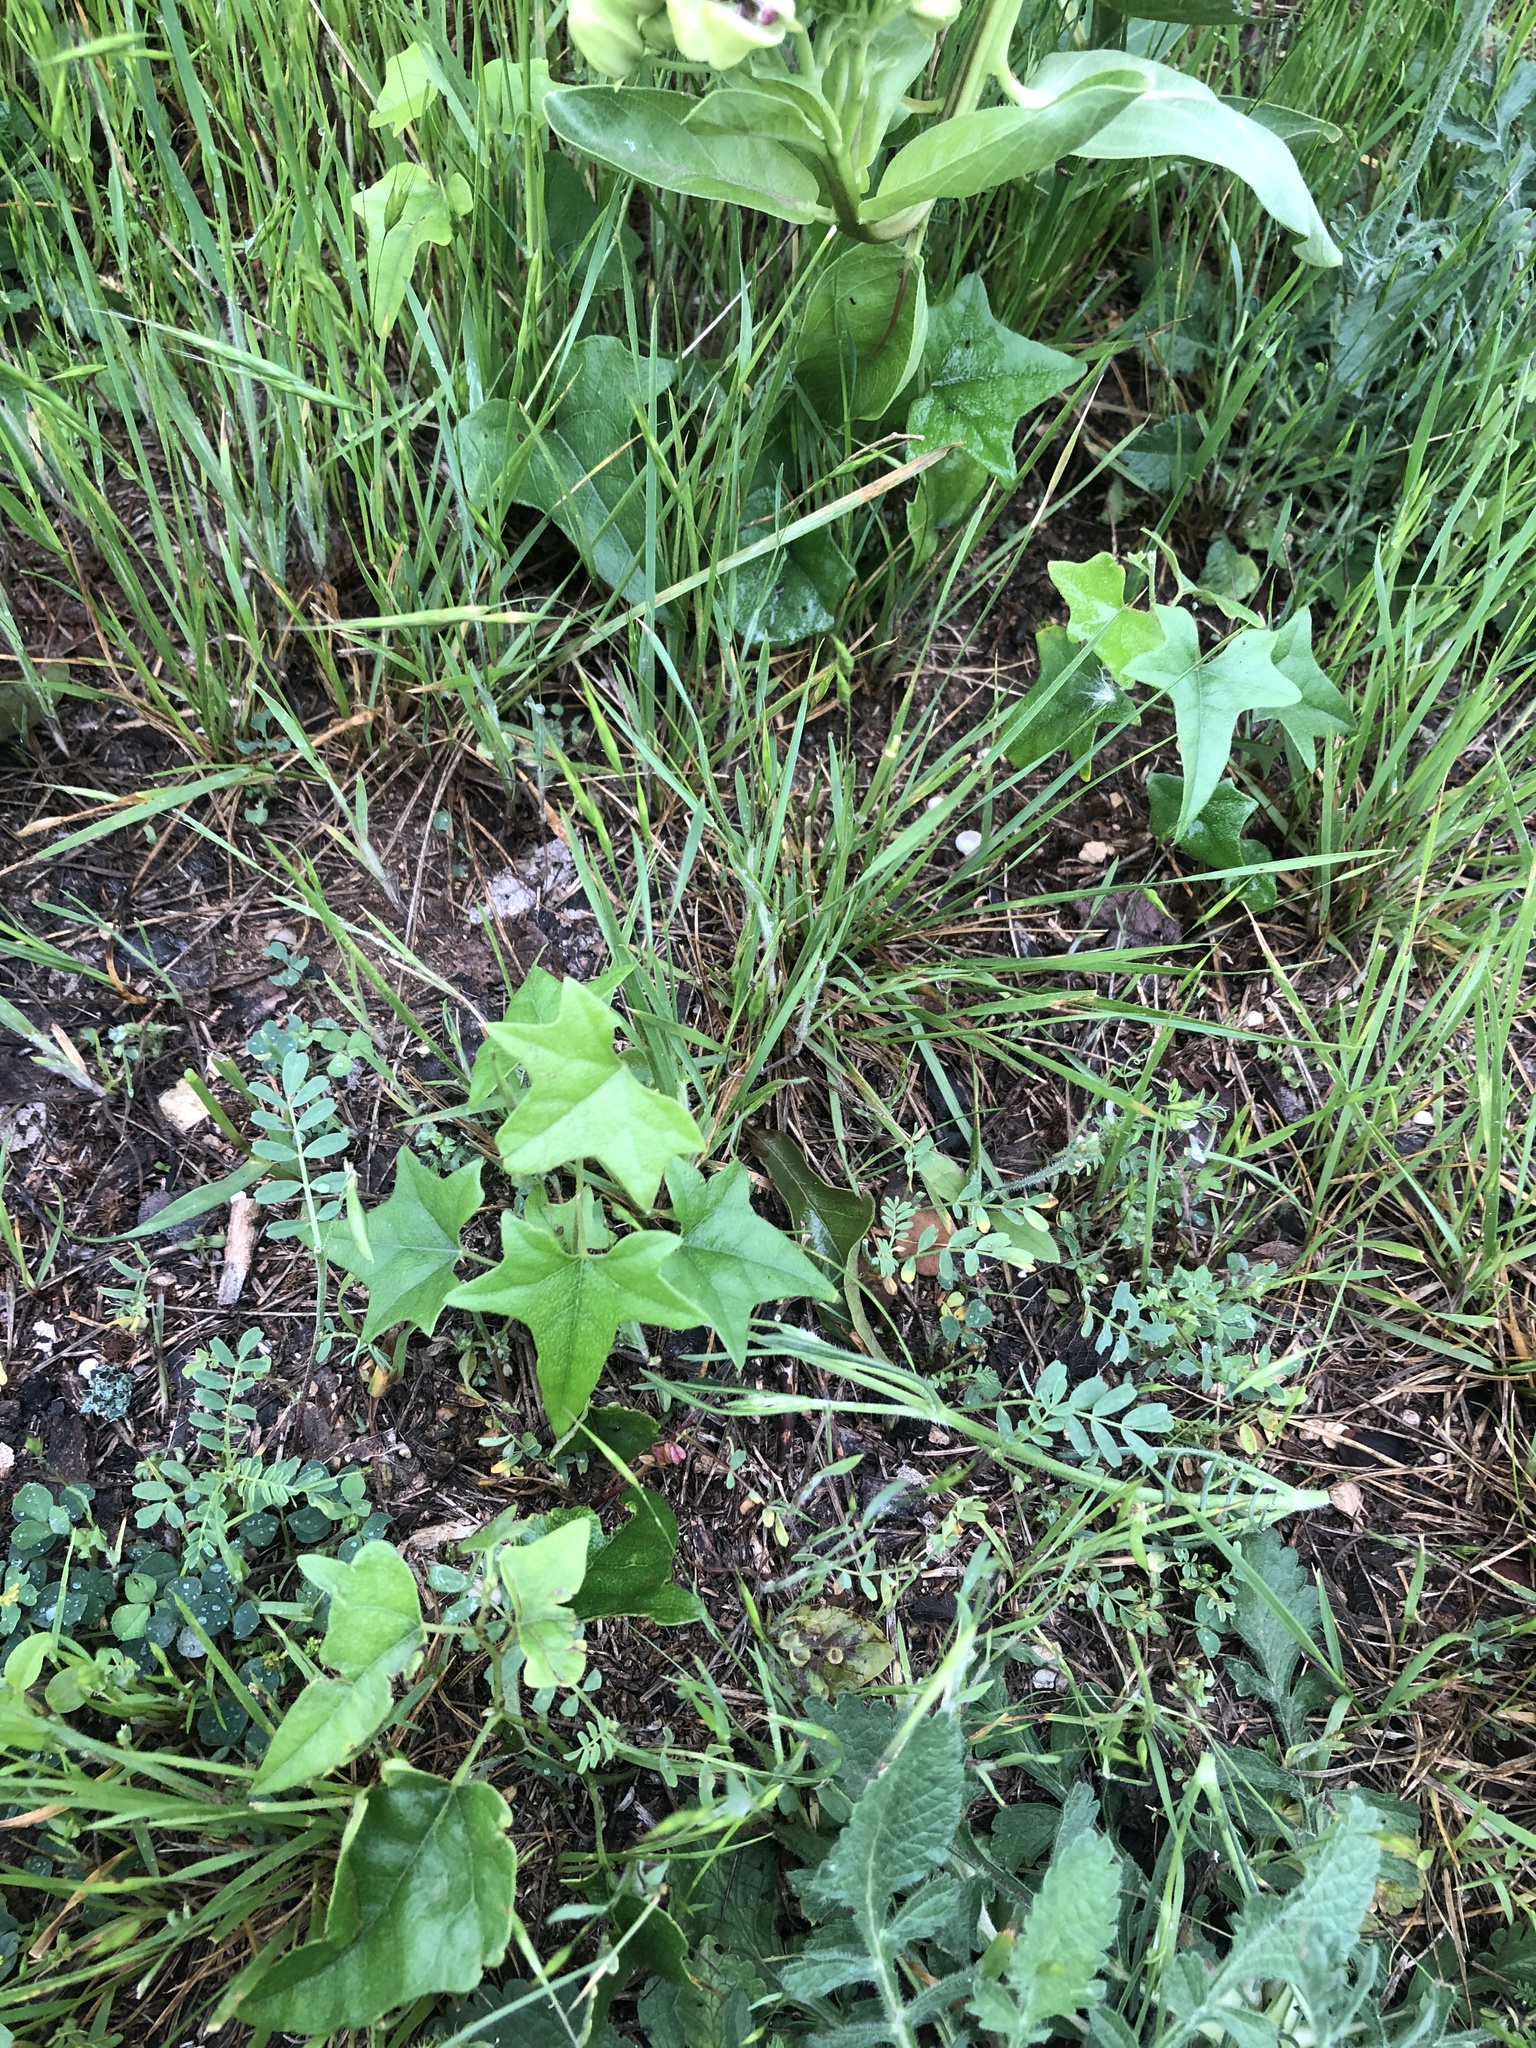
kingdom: Plantae
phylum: Tracheophyta
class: Magnoliopsida
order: Ranunculales
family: Menispermaceae
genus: Cocculus
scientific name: Cocculus carolinus
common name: Carolina moonseed
